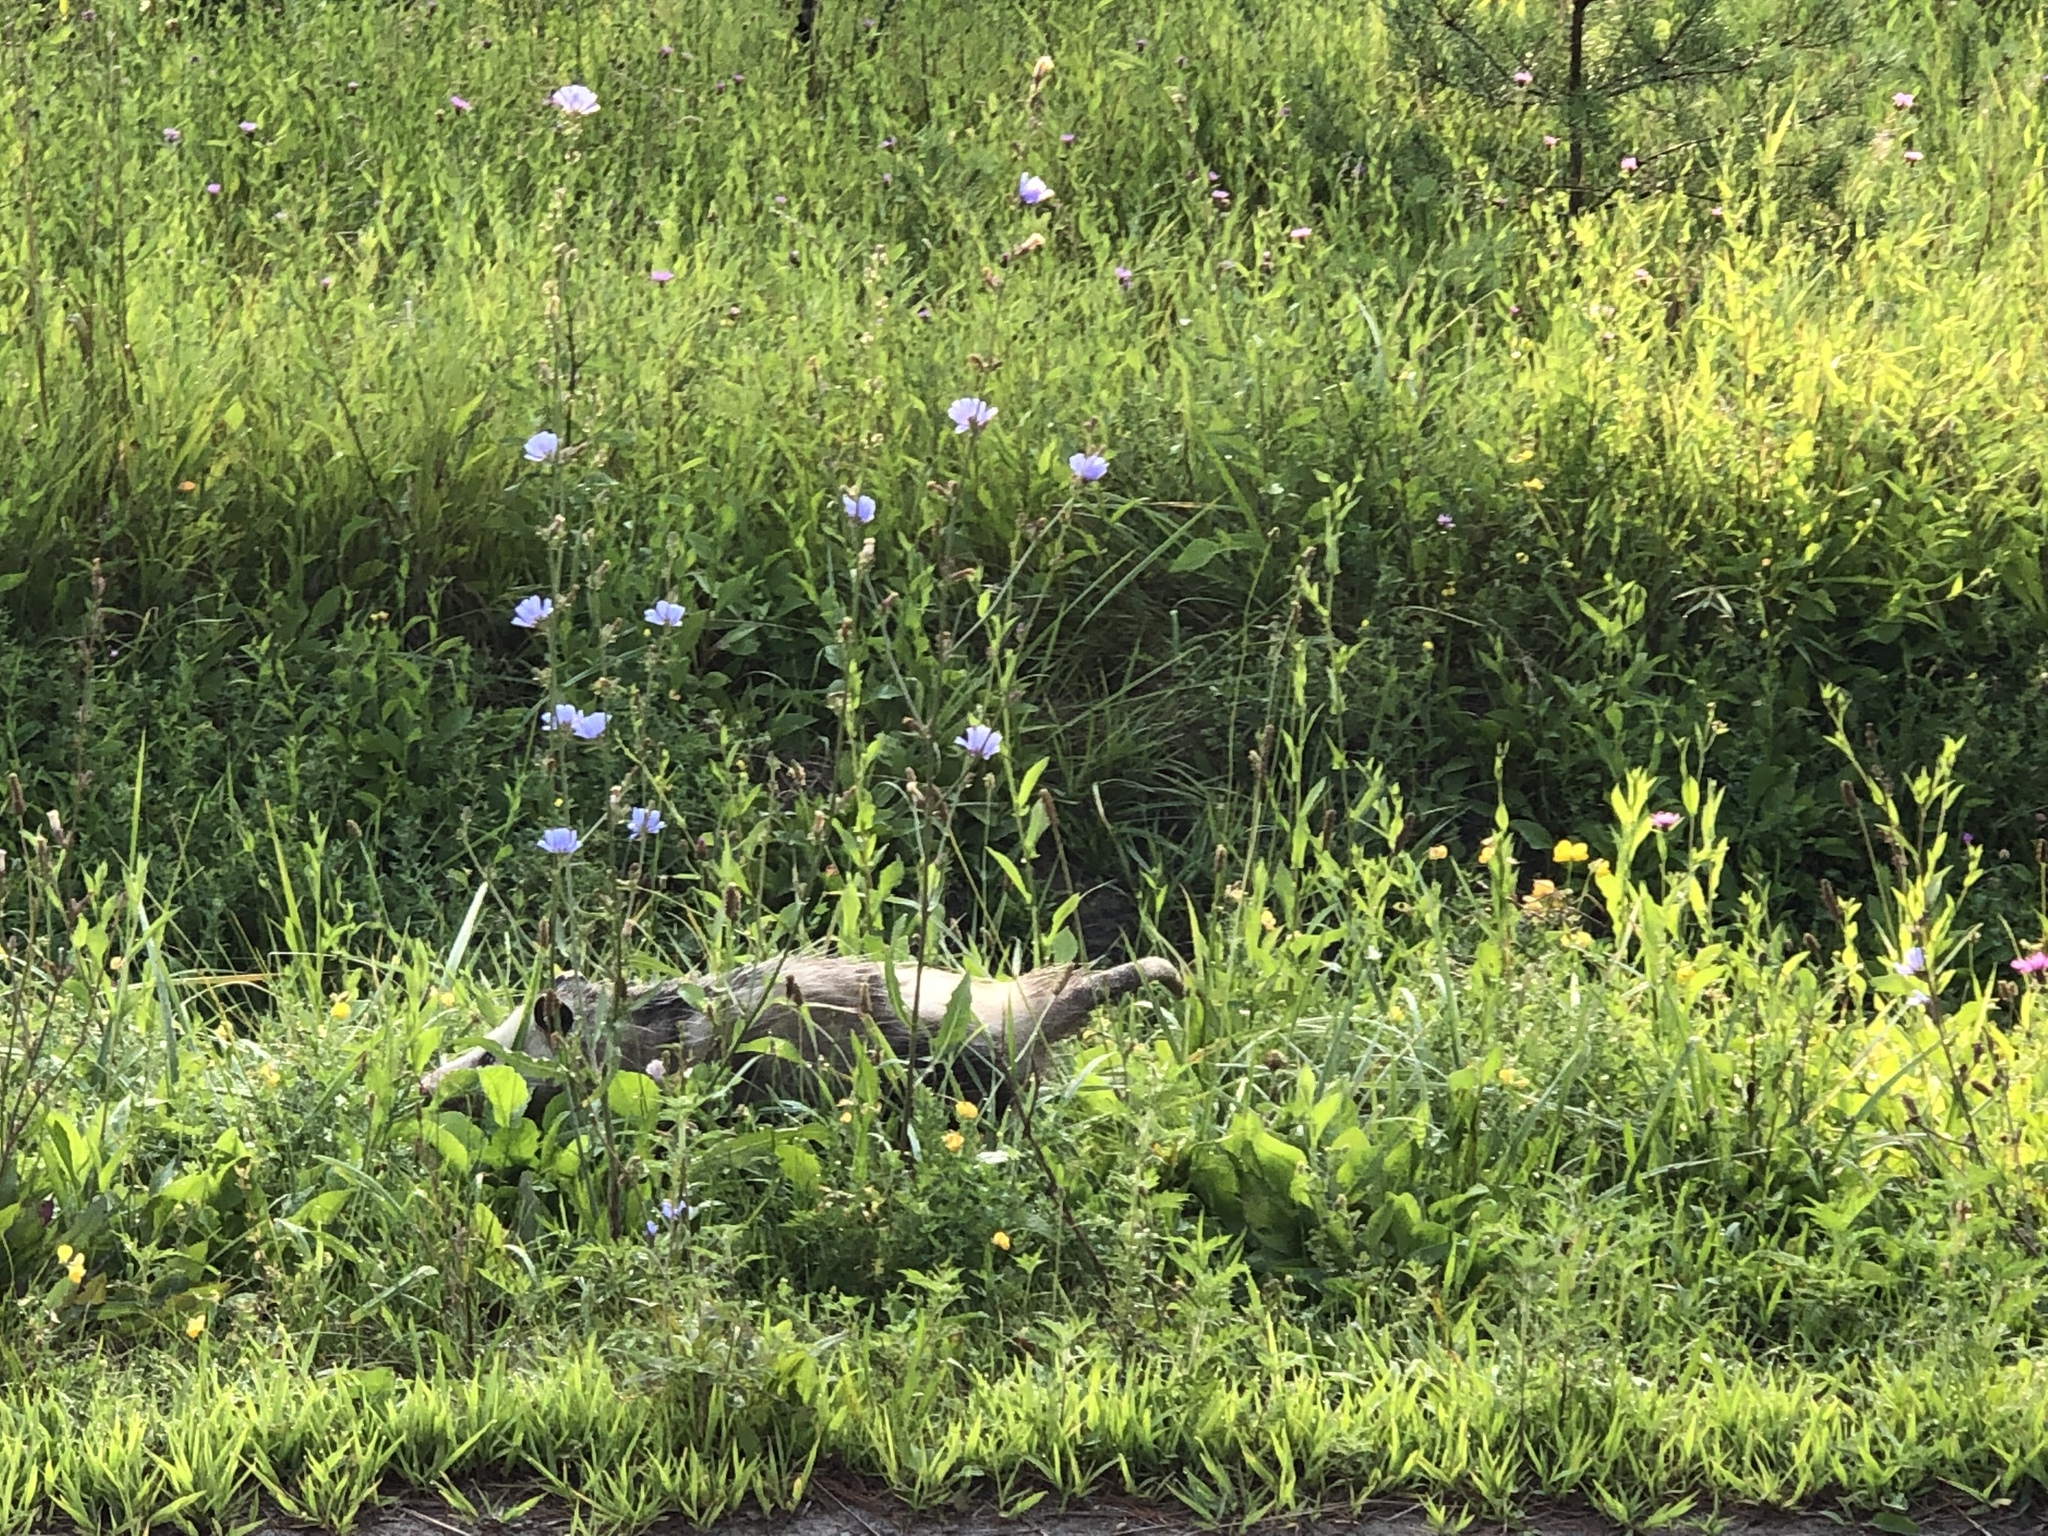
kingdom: Animalia
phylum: Chordata
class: Mammalia
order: Didelphimorphia
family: Didelphidae
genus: Didelphis
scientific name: Didelphis virginiana
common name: Virginia opossum
